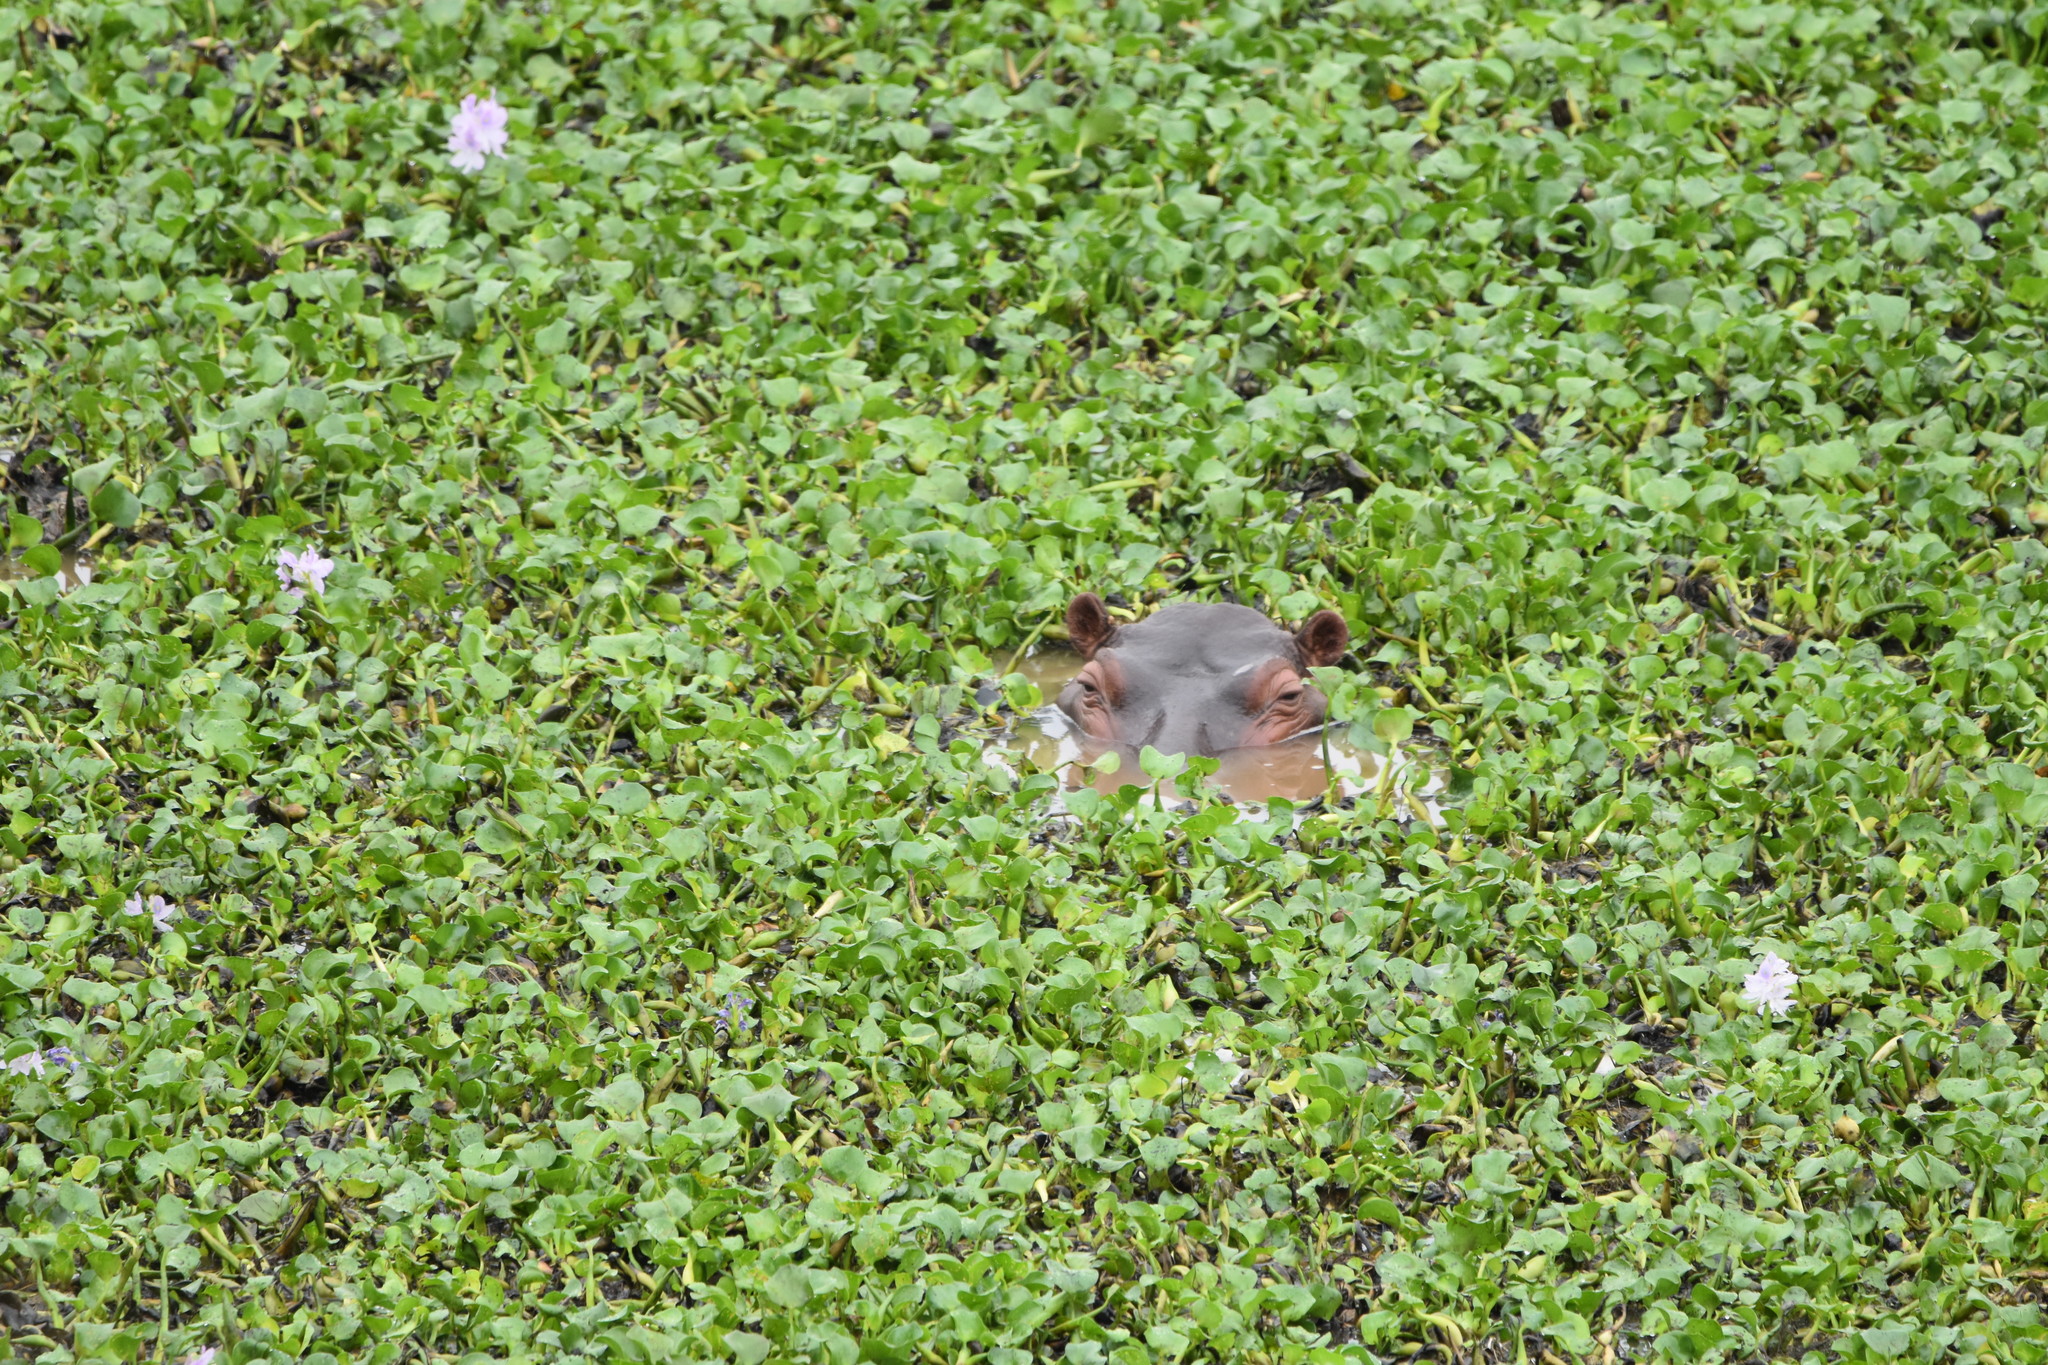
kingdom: Animalia
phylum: Chordata
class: Mammalia
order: Artiodactyla
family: Hippopotamidae
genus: Hippopotamus
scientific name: Hippopotamus amphibius
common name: Common hippopotamus
